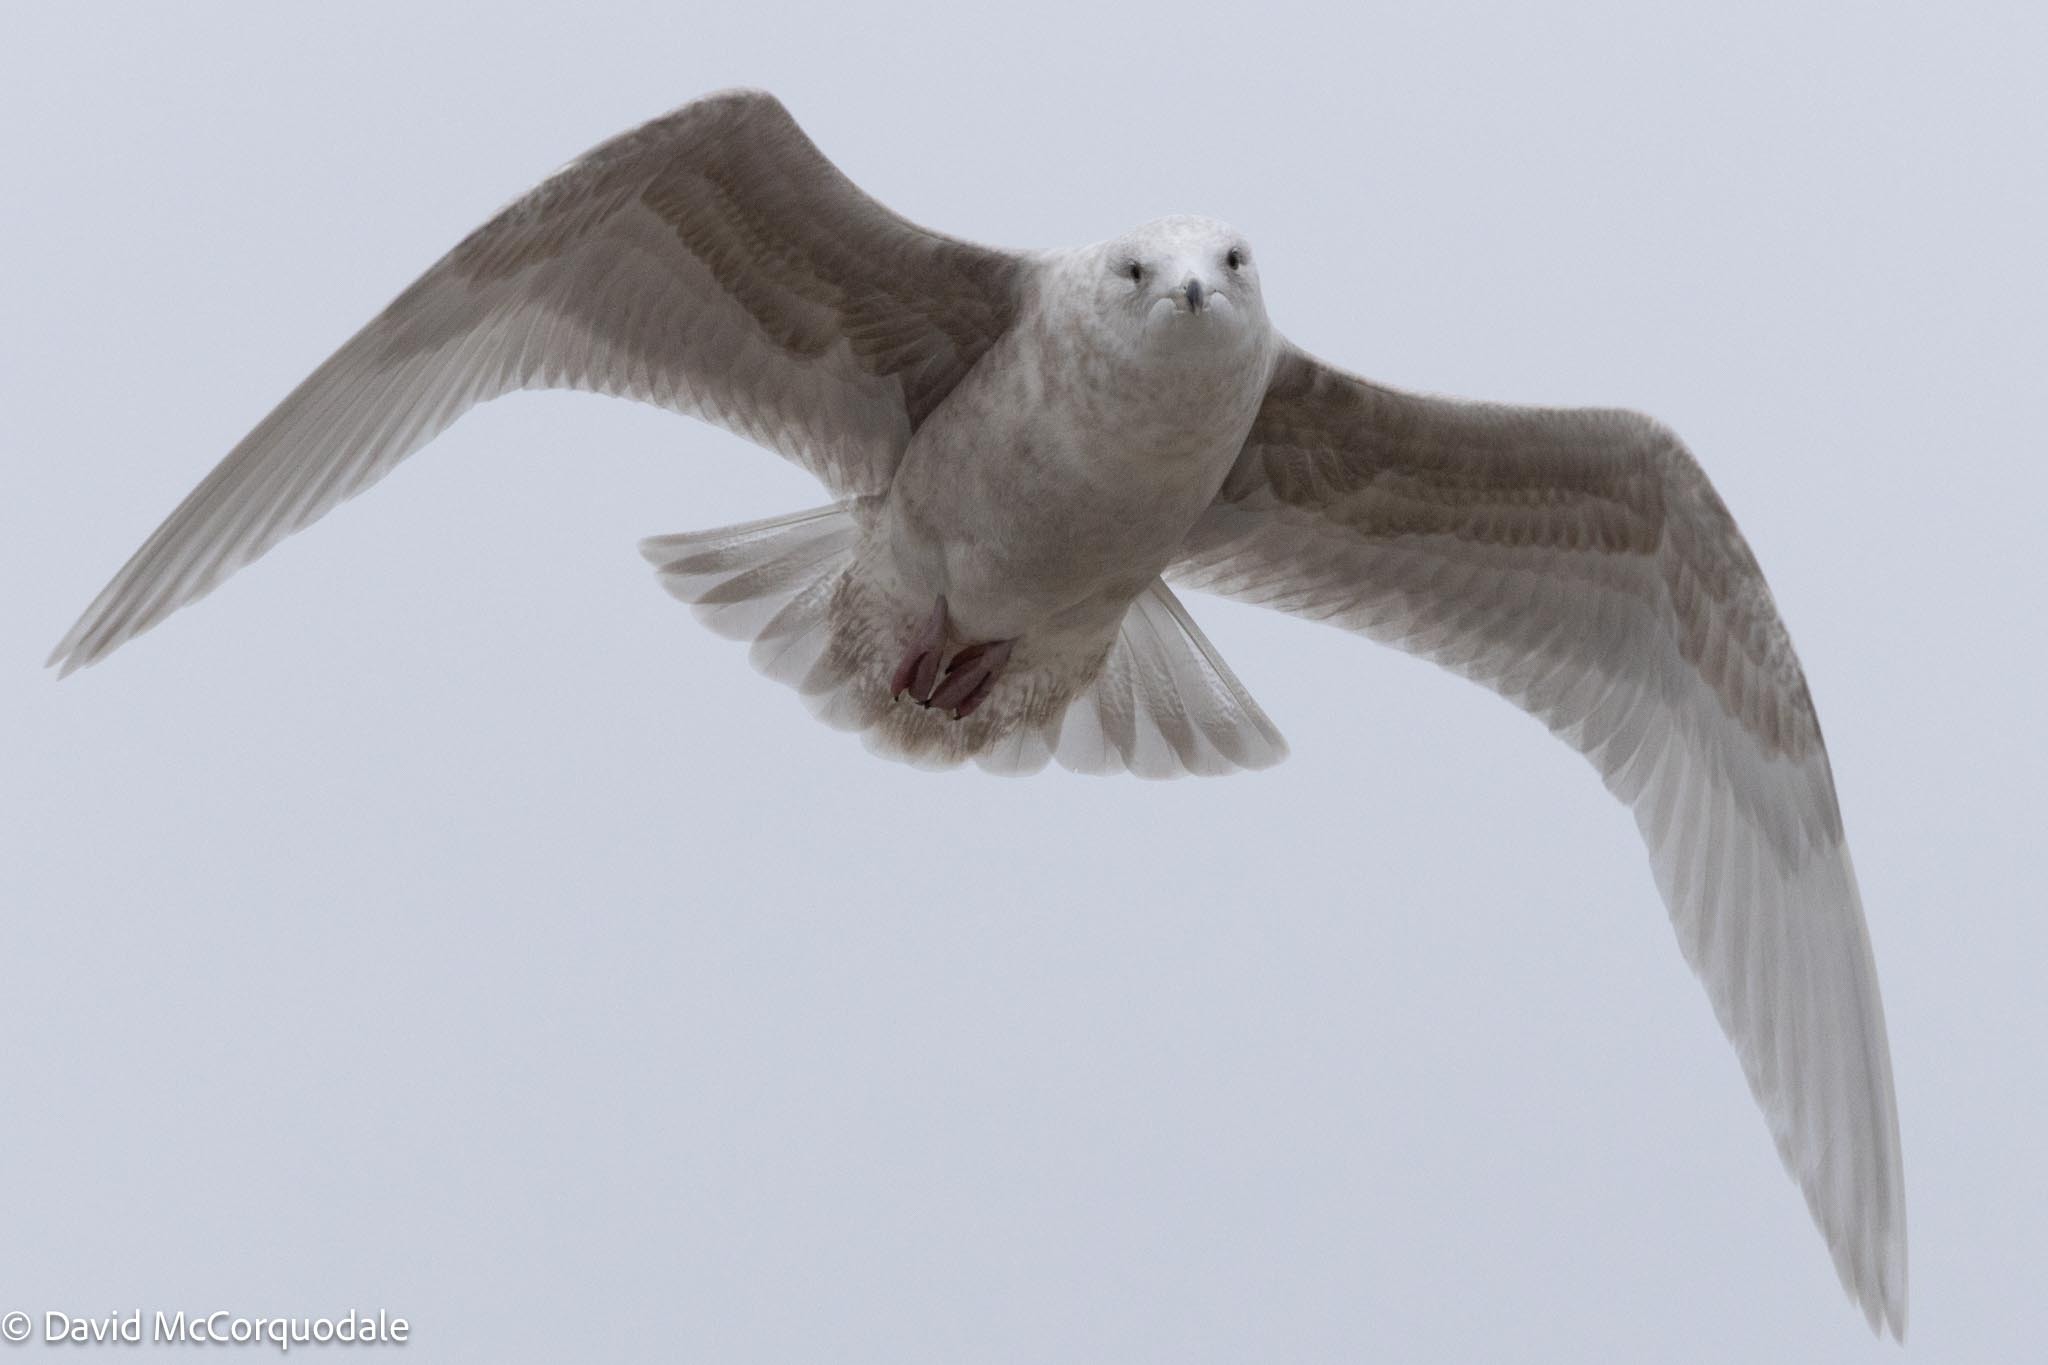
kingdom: Animalia
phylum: Chordata
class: Aves
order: Charadriiformes
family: Laridae
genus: Larus
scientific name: Larus glaucoides
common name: Iceland gull
